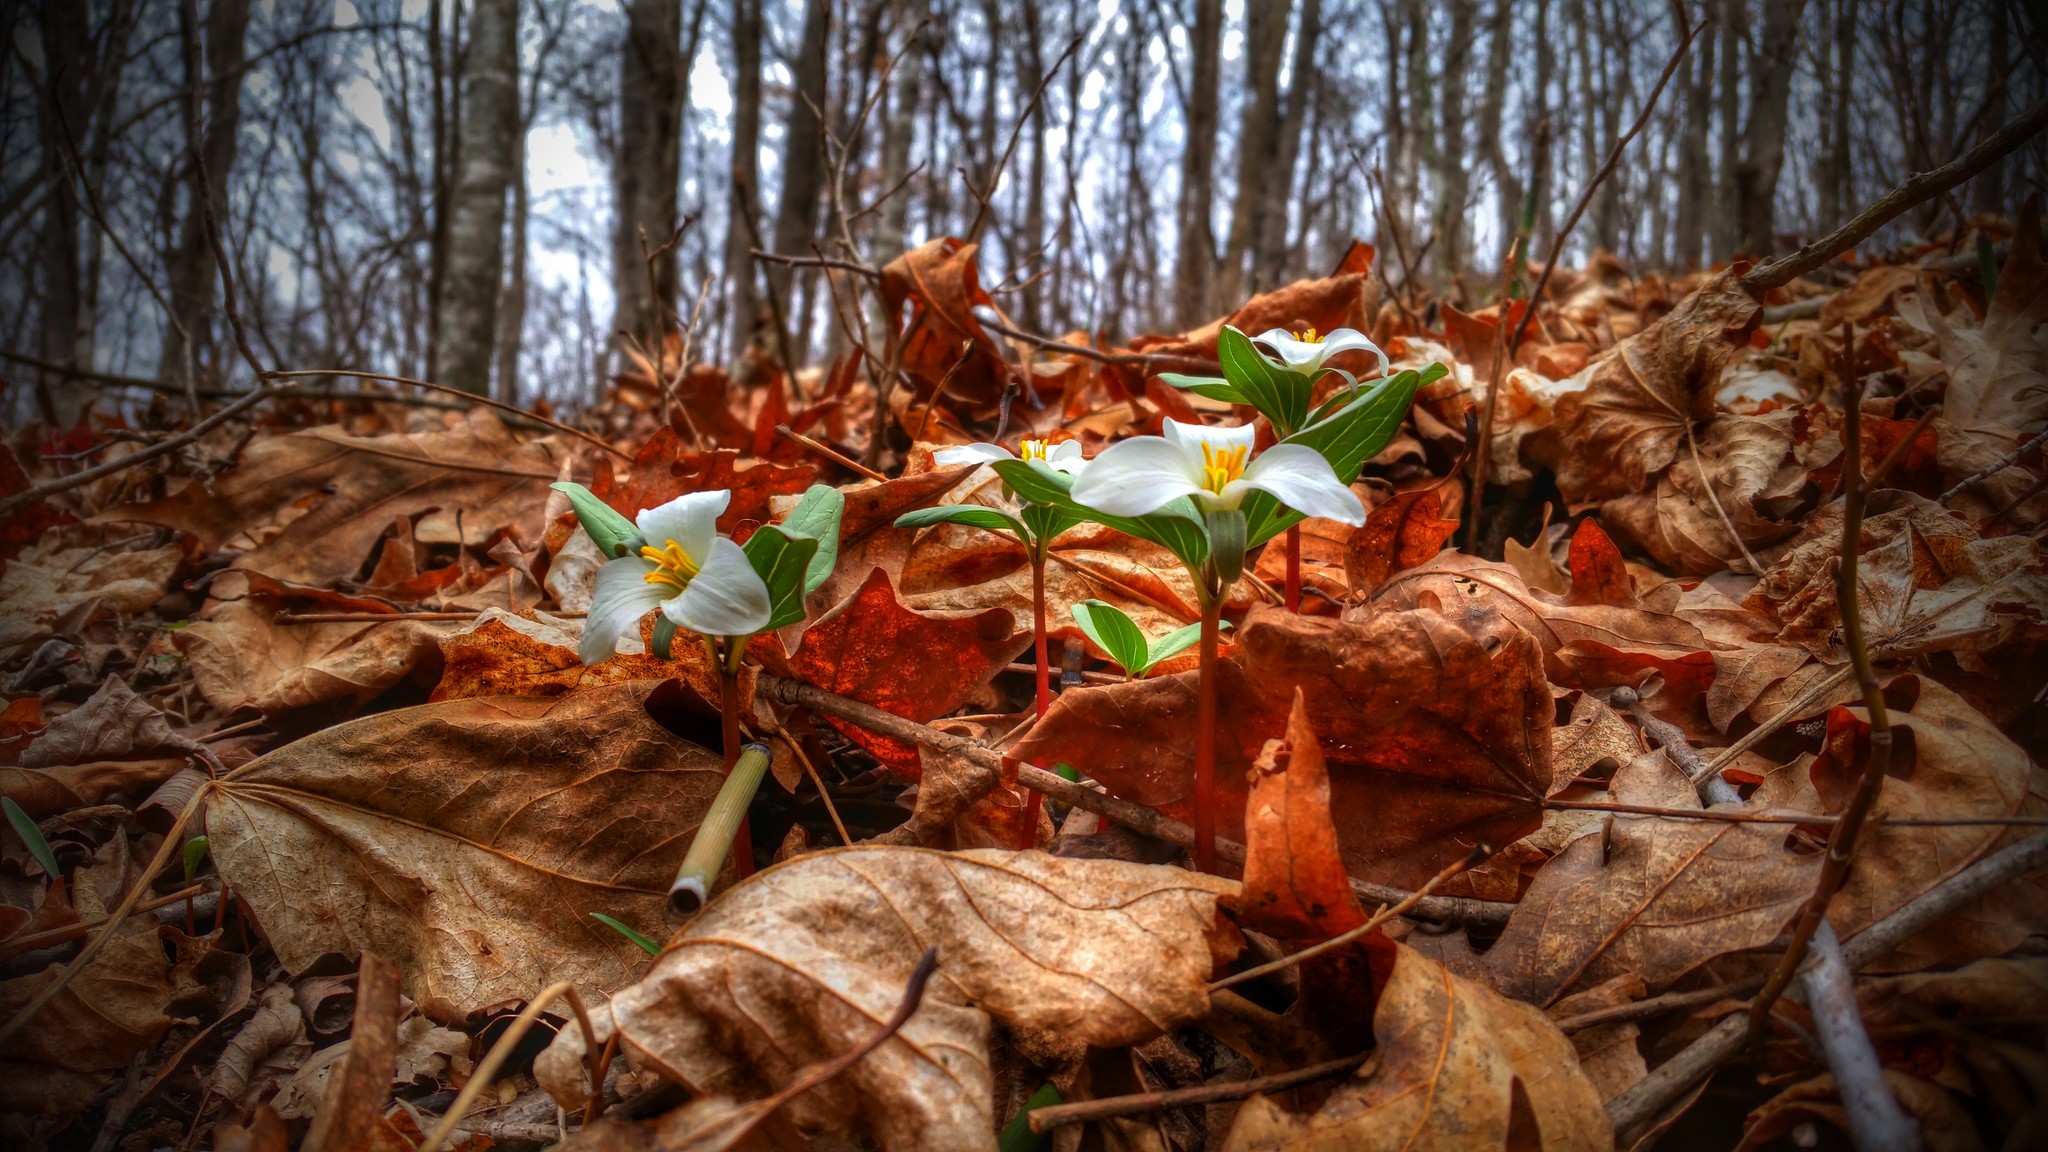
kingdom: Plantae
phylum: Tracheophyta
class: Liliopsida
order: Liliales
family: Melanthiaceae
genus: Trillium
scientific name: Trillium nivale
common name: Dwarf white trillium
